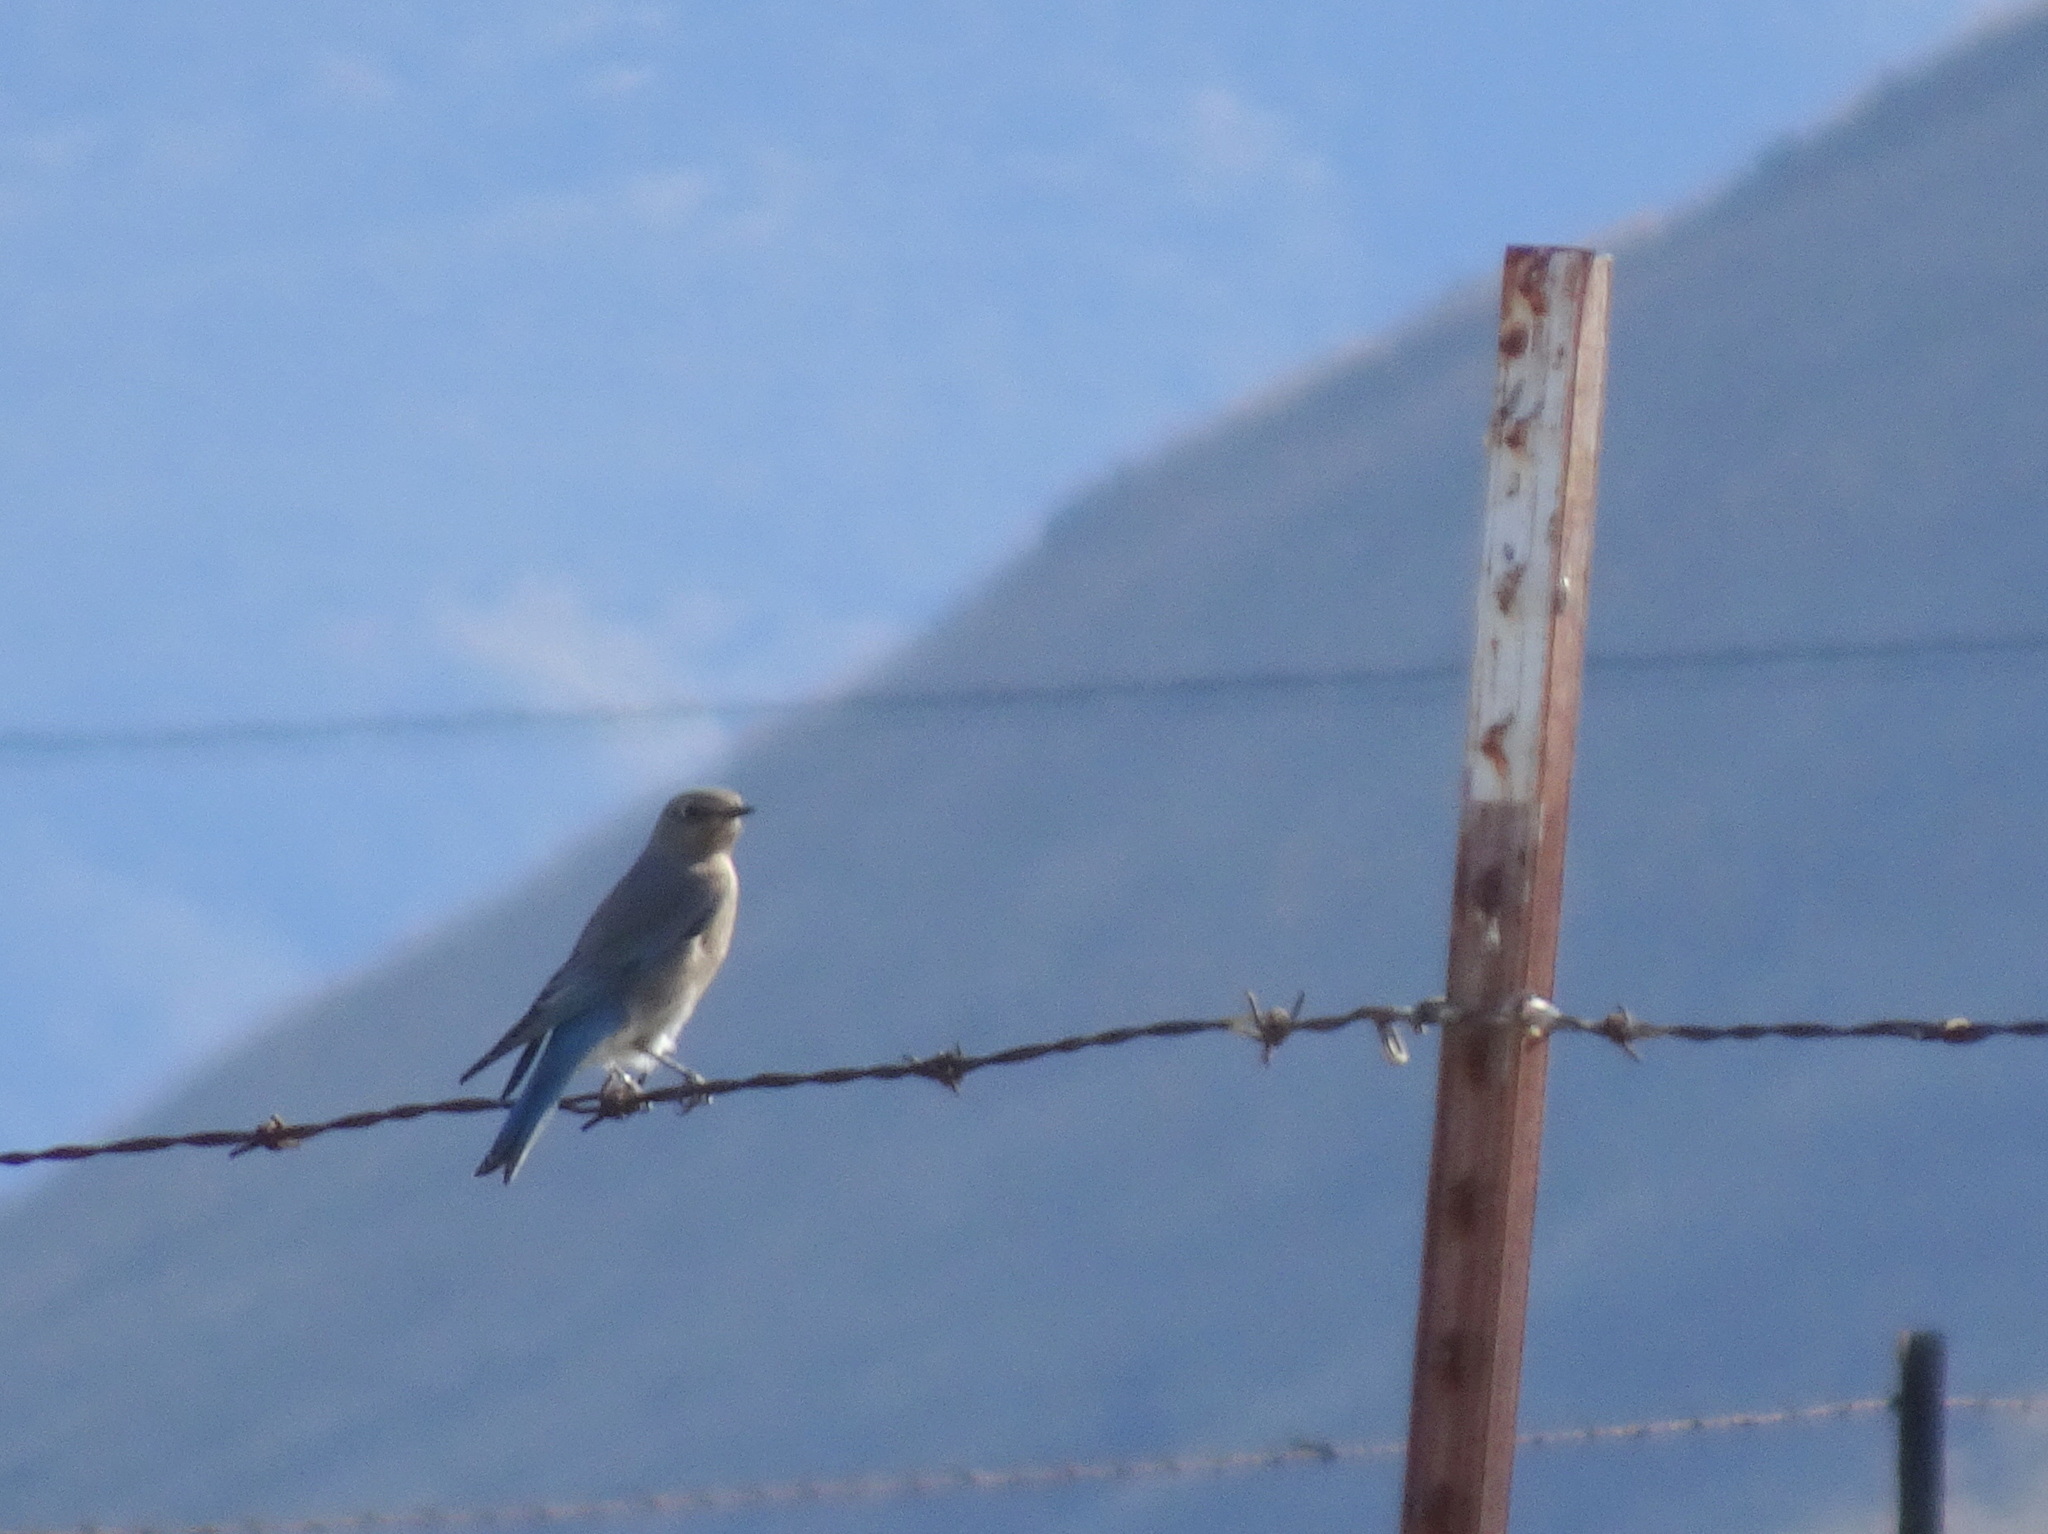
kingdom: Animalia
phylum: Chordata
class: Aves
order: Passeriformes
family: Turdidae
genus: Sialia
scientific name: Sialia currucoides
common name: Mountain bluebird
